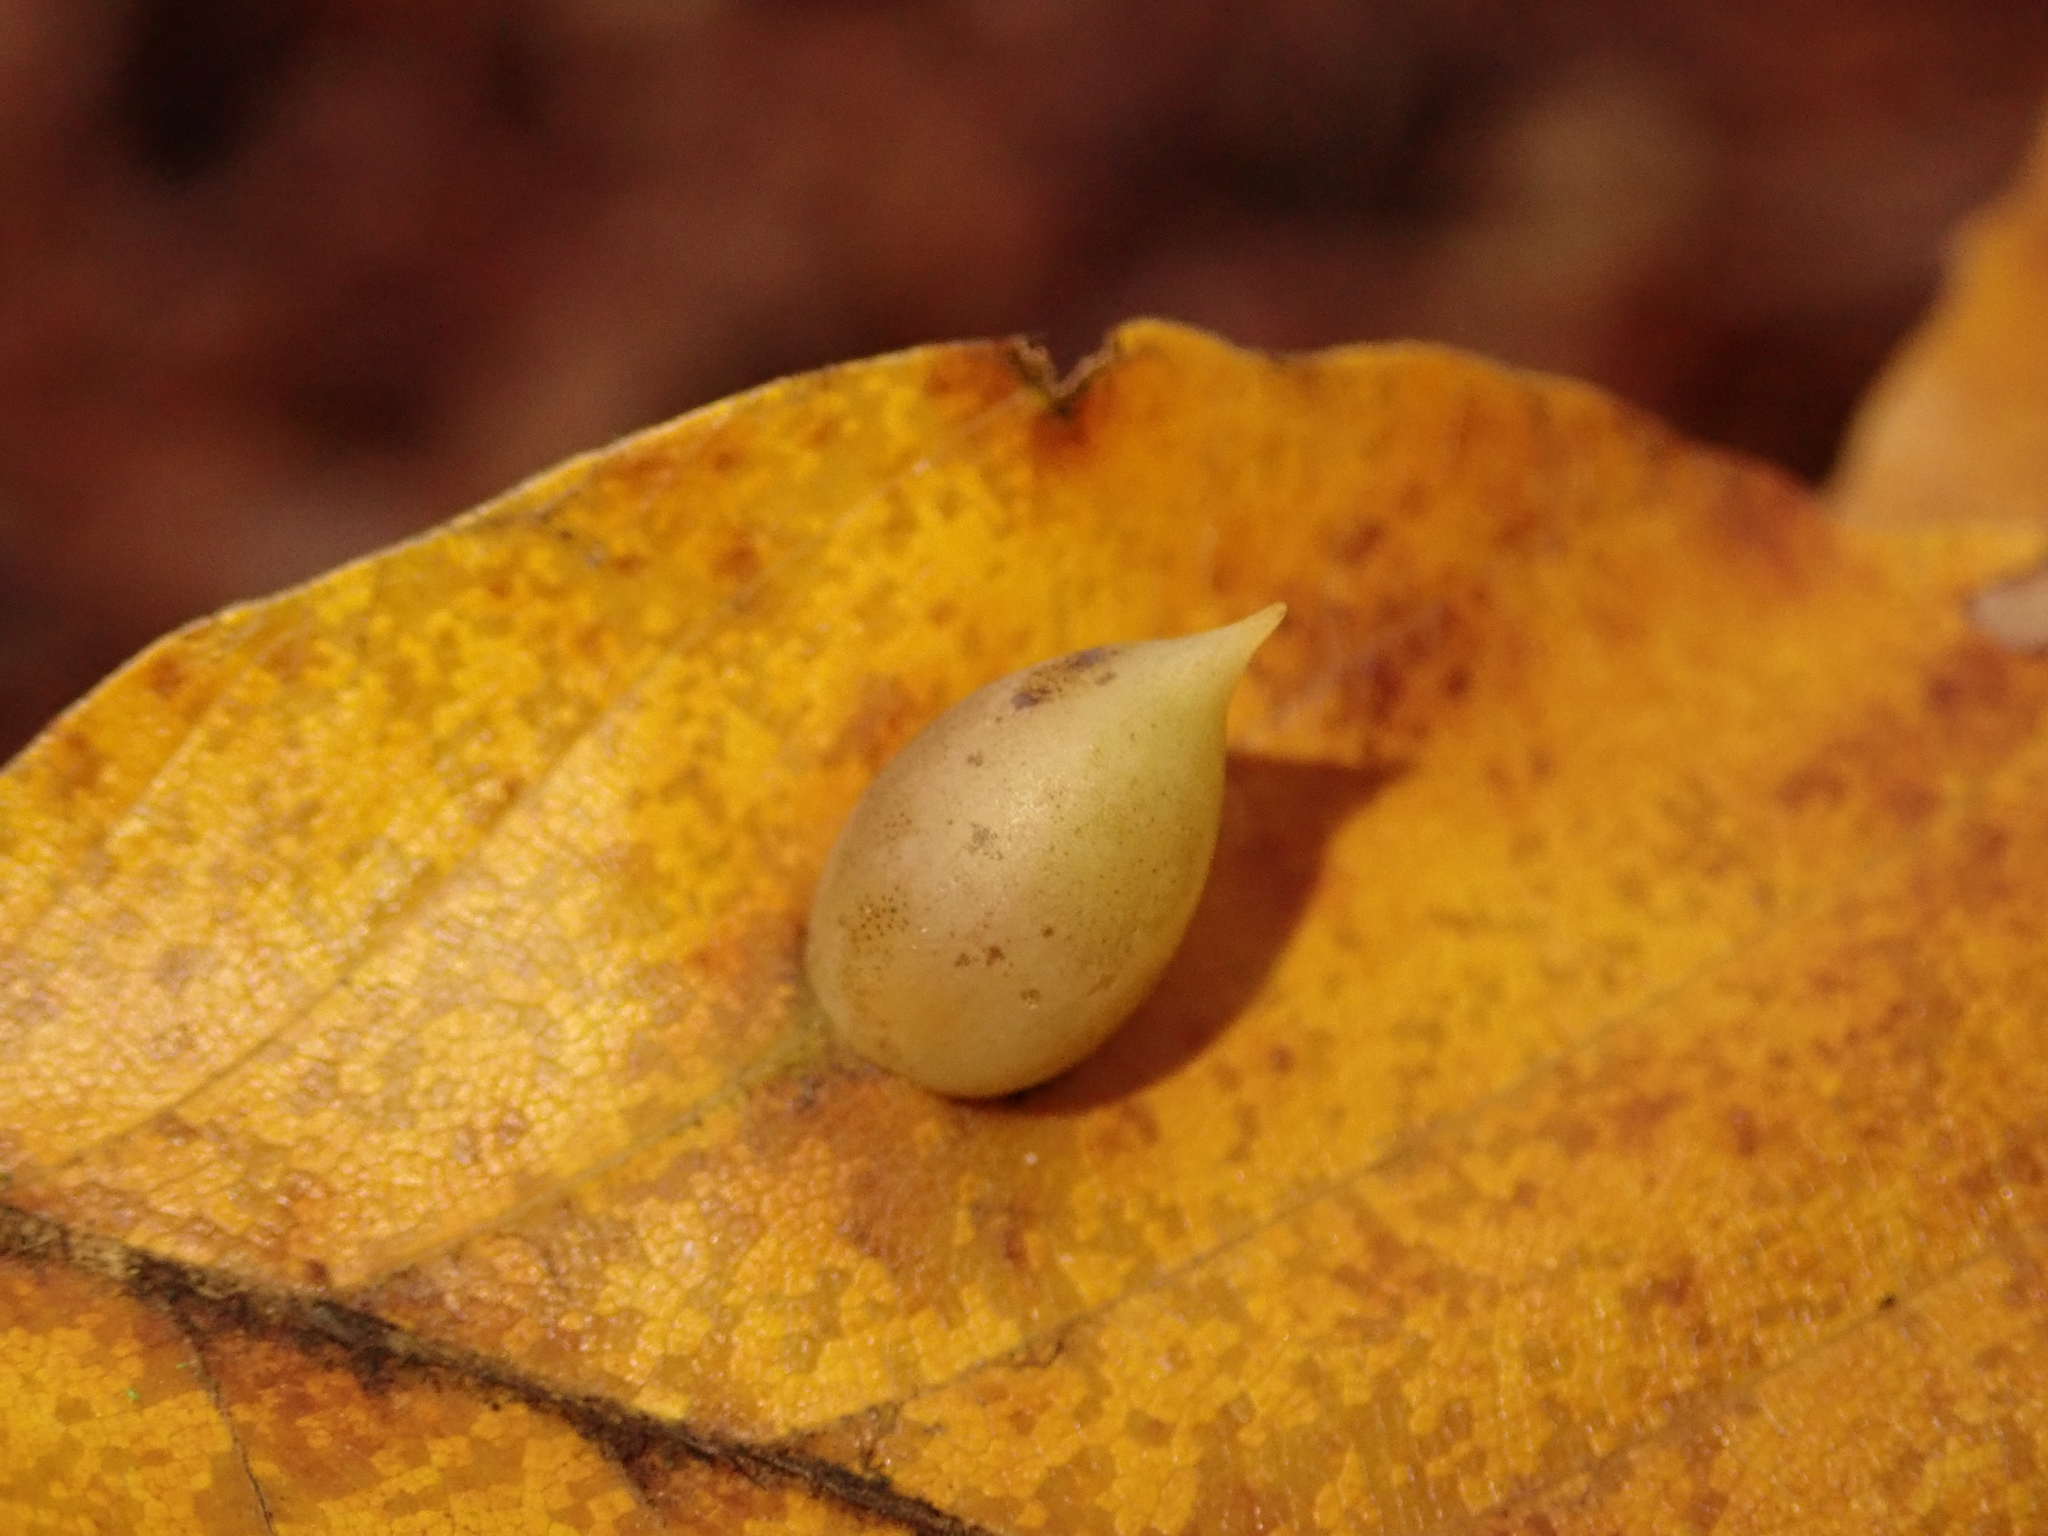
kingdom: Animalia
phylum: Arthropoda
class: Insecta
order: Diptera
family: Cecidomyiidae
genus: Mikiola
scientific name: Mikiola fagi
